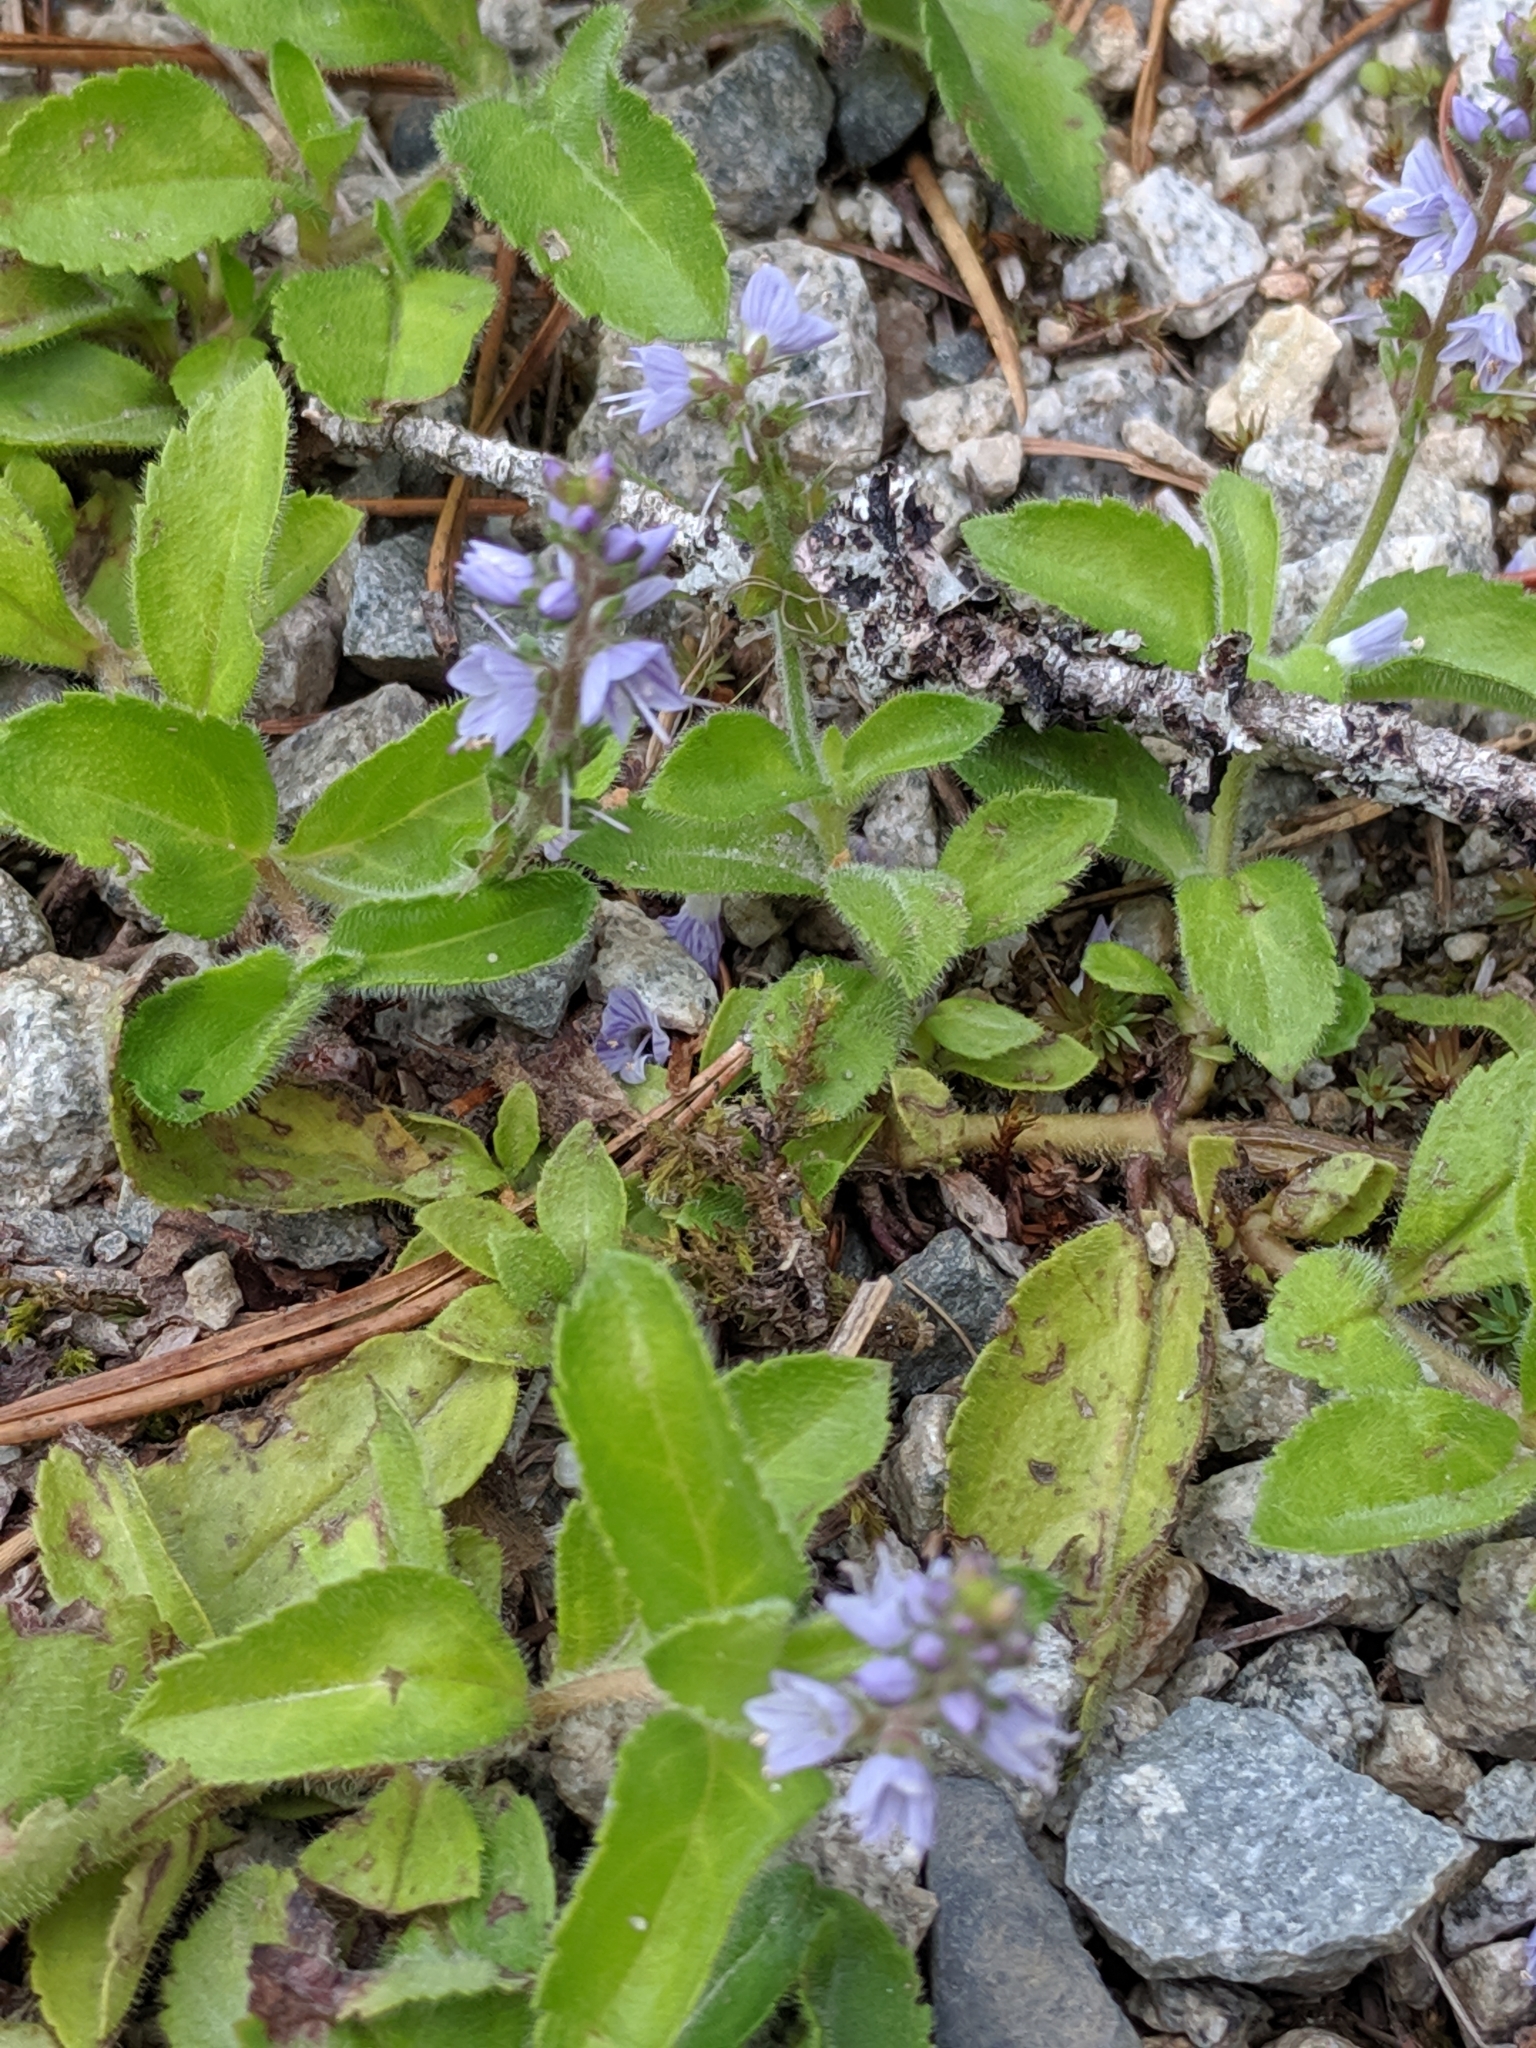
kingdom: Plantae
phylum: Tracheophyta
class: Magnoliopsida
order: Lamiales
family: Plantaginaceae
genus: Veronica
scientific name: Veronica officinalis
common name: Common speedwell
